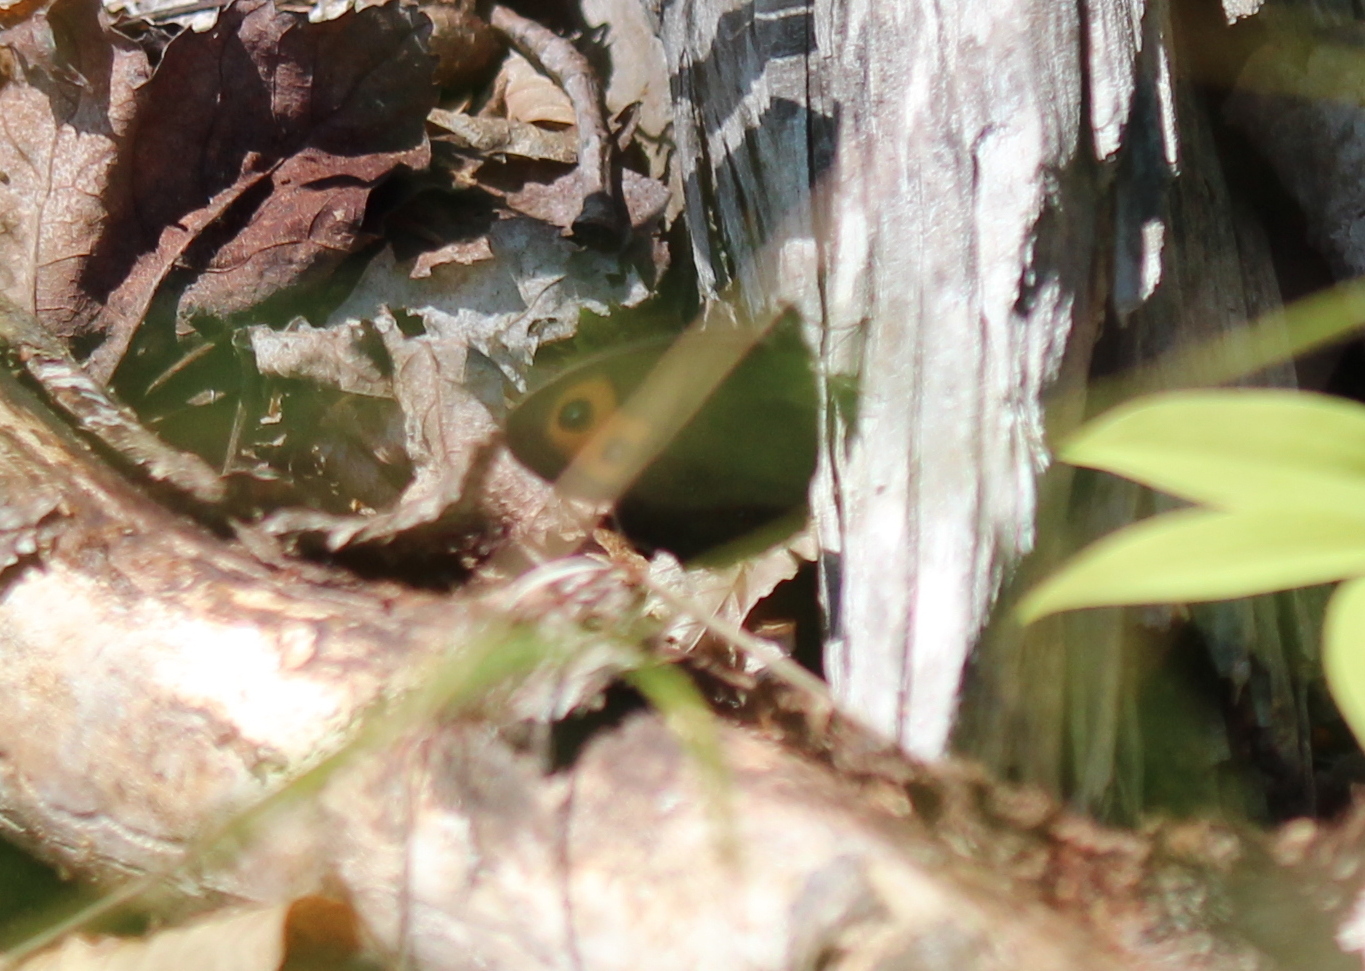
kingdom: Animalia
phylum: Arthropoda
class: Insecta
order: Lepidoptera
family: Nymphalidae
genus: Cercyonis
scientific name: Cercyonis pegala
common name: Common wood-nymph
